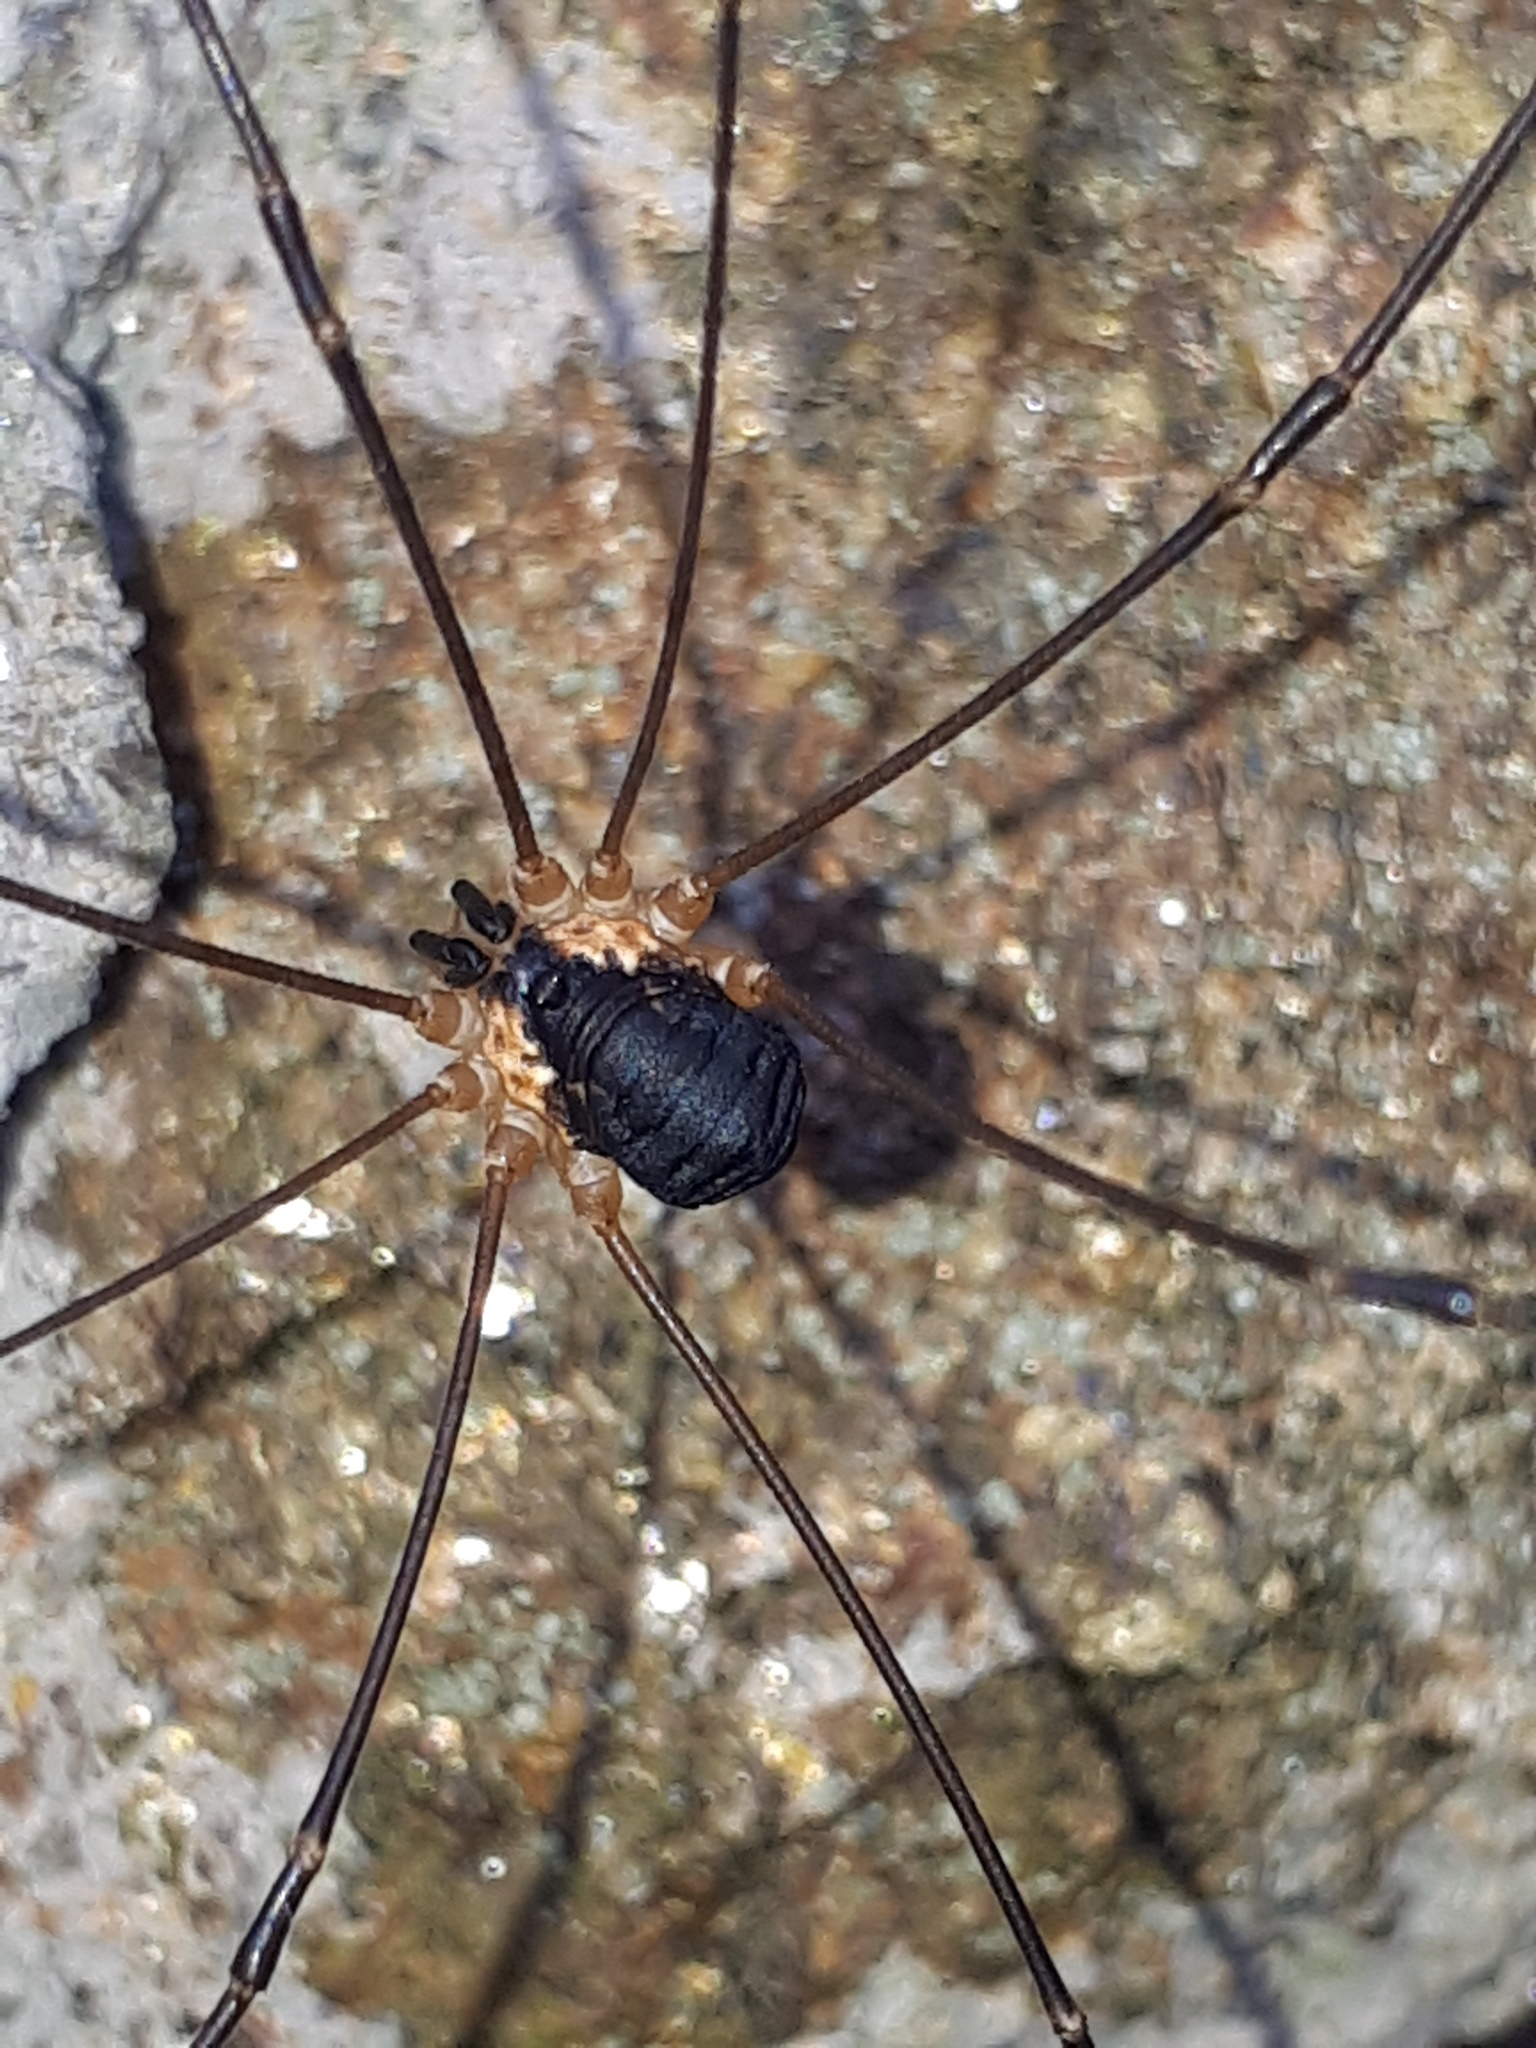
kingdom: Animalia
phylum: Arthropoda
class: Arachnida
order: Opiliones
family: Sclerosomatidae
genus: Leiobunum
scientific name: Leiobunum rupestre
